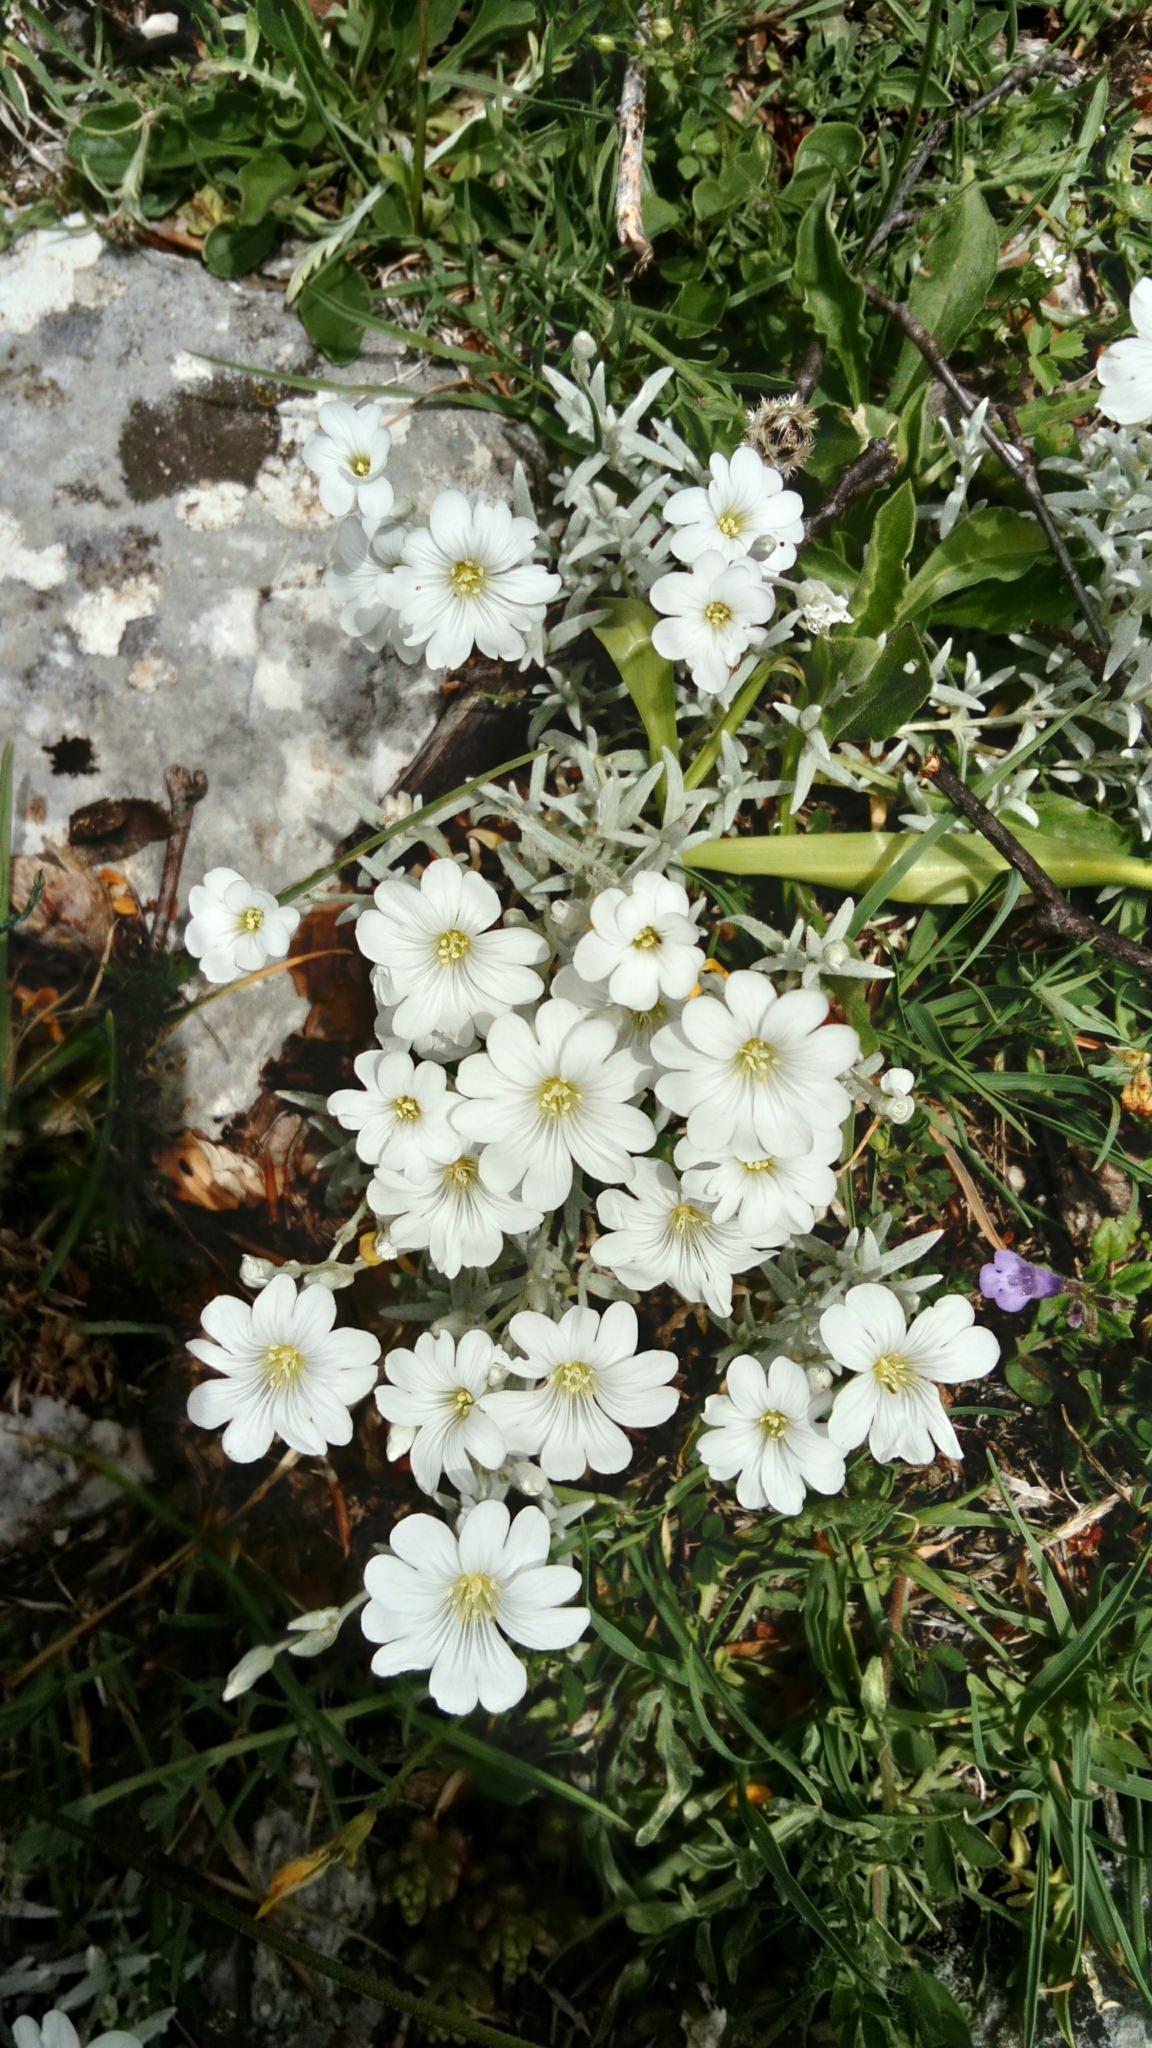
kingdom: Plantae
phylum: Tracheophyta
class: Magnoliopsida
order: Caryophyllales
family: Caryophyllaceae
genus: Cerastium
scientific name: Cerastium tomentosum
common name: Snow-in-summer
